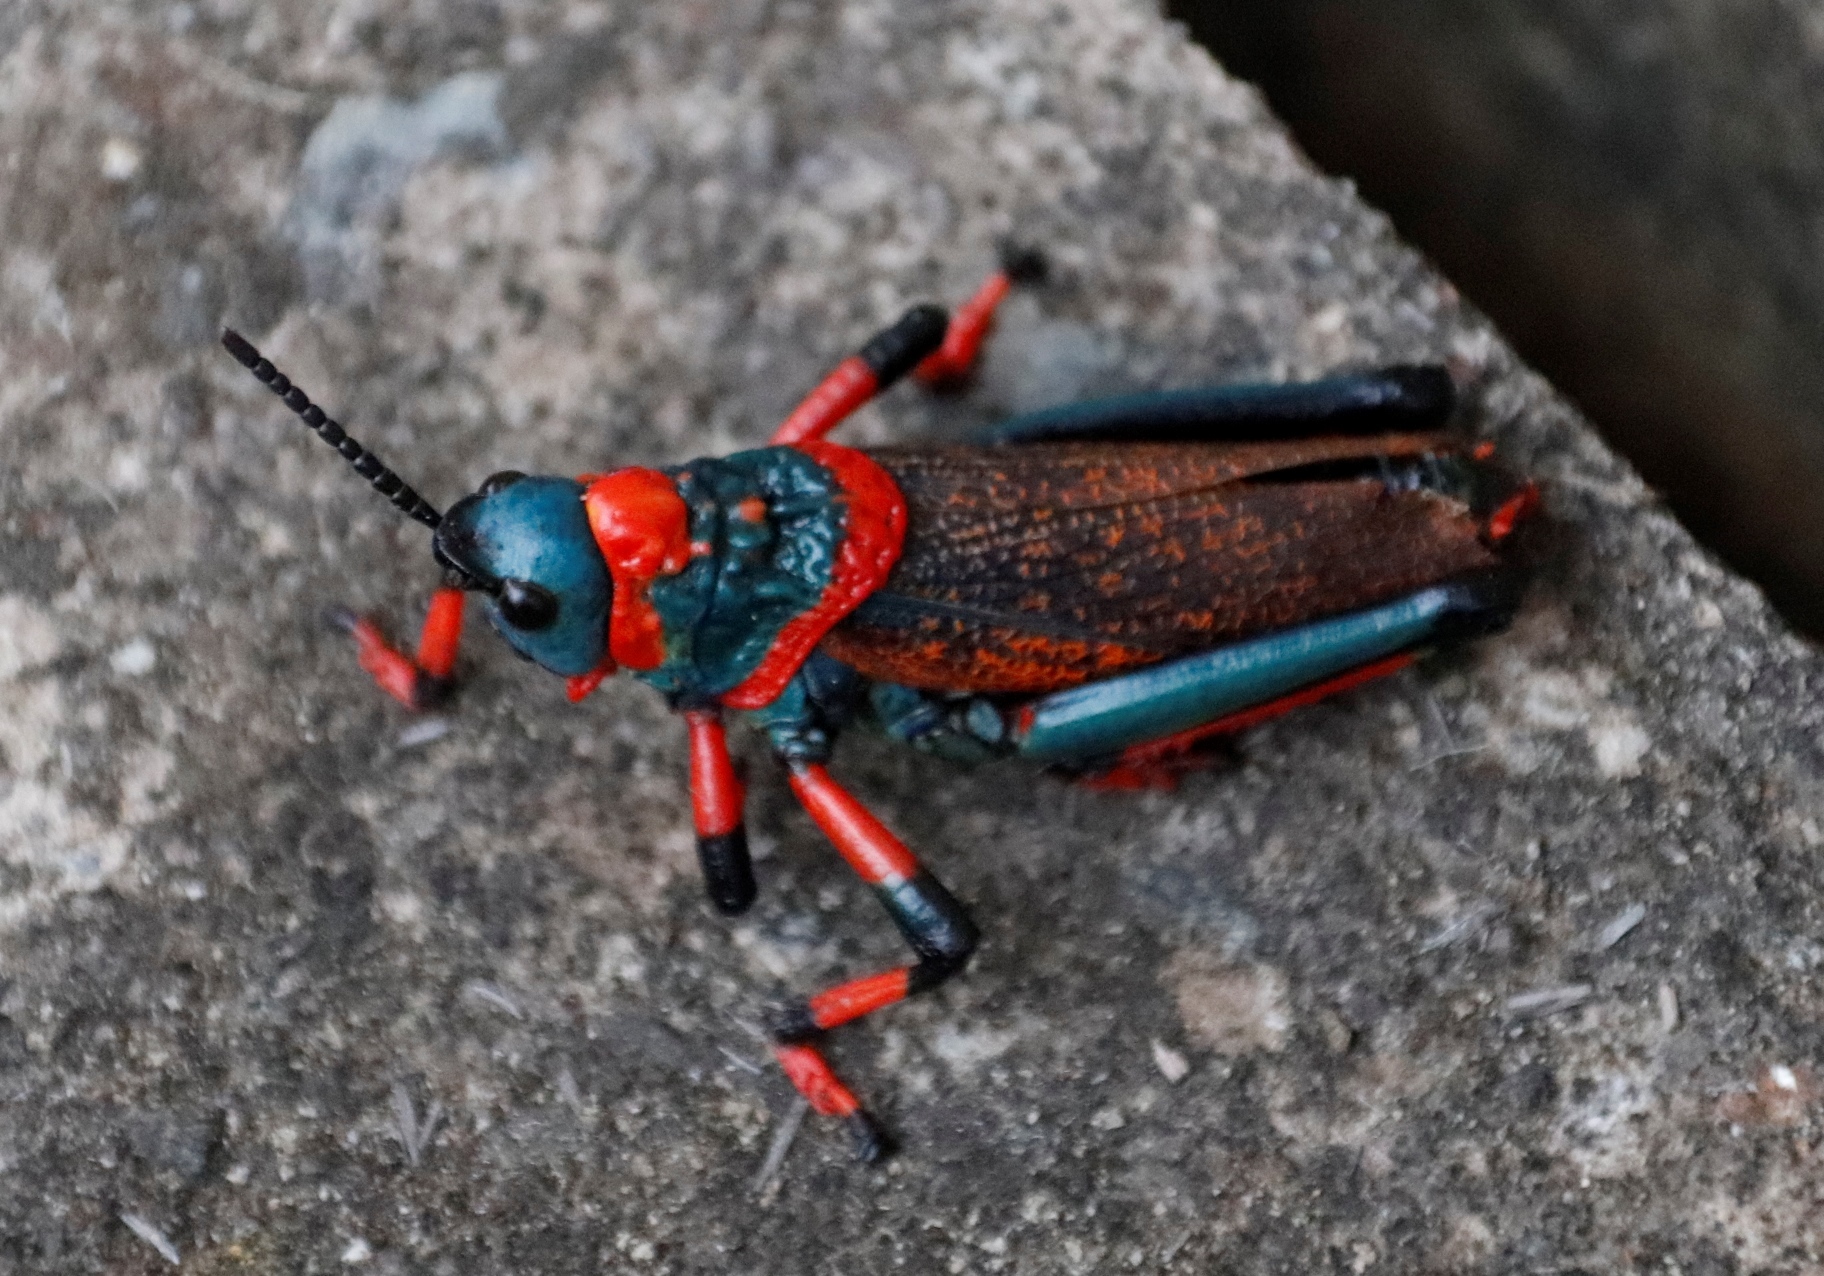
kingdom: Animalia
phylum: Arthropoda
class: Insecta
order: Orthoptera
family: Pyrgomorphidae
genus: Dictyophorus
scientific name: Dictyophorus spumans
